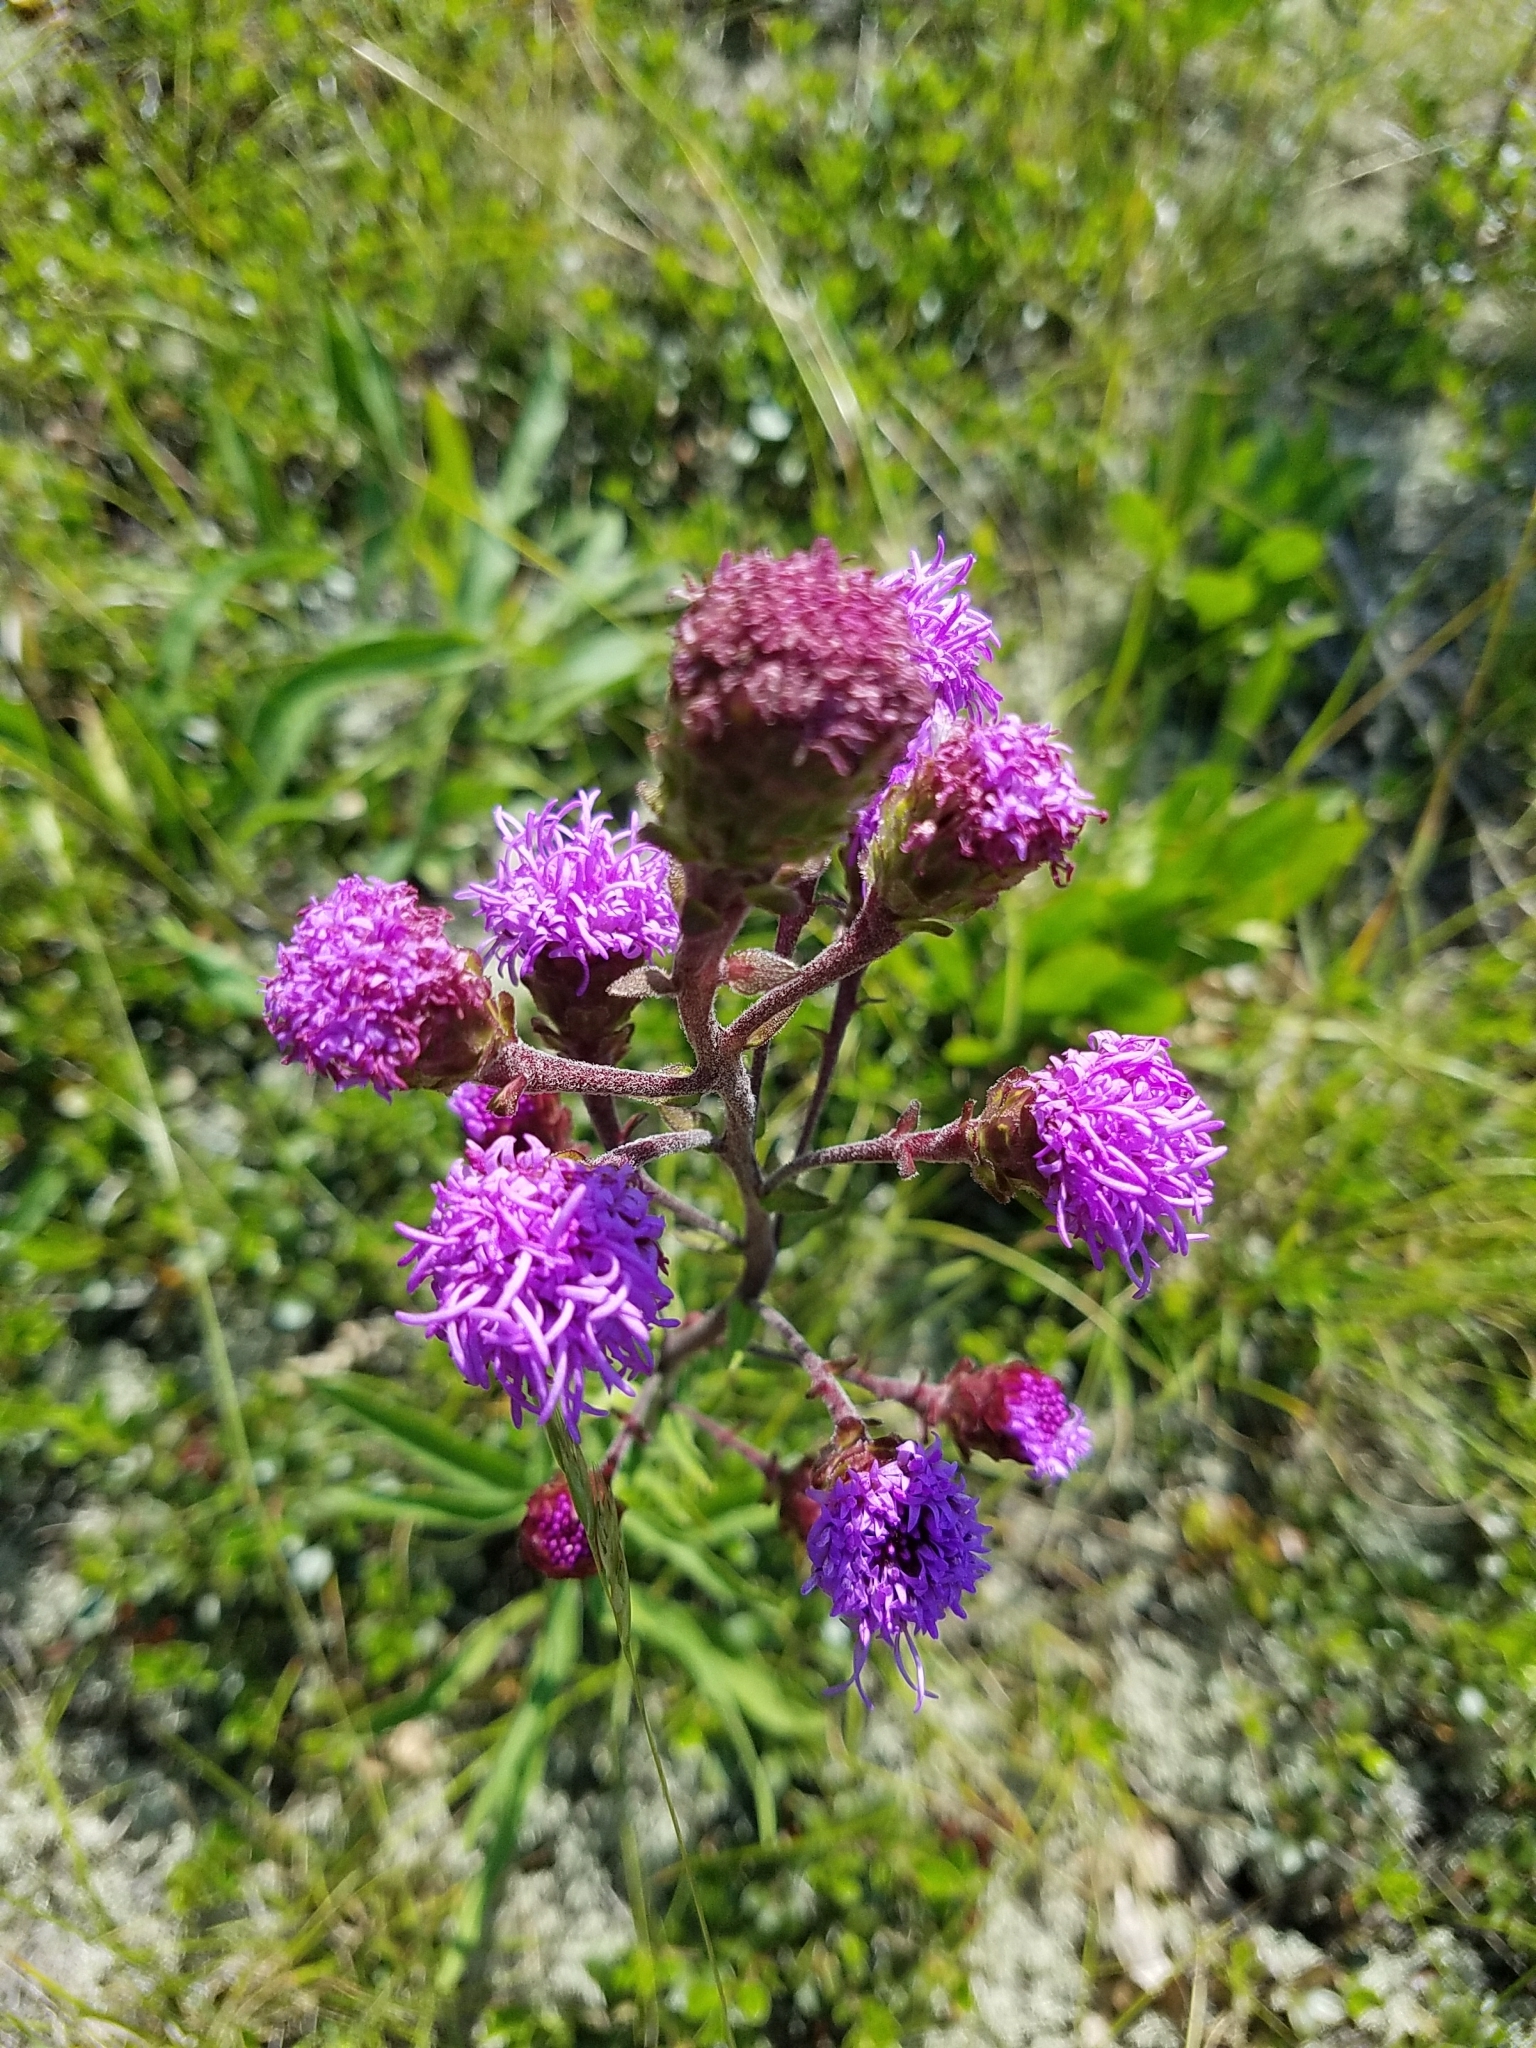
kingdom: Plantae
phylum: Tracheophyta
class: Magnoliopsida
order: Asterales
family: Asteraceae
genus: Liatris
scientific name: Liatris ligulistylis
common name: Northern plains gayfeather
